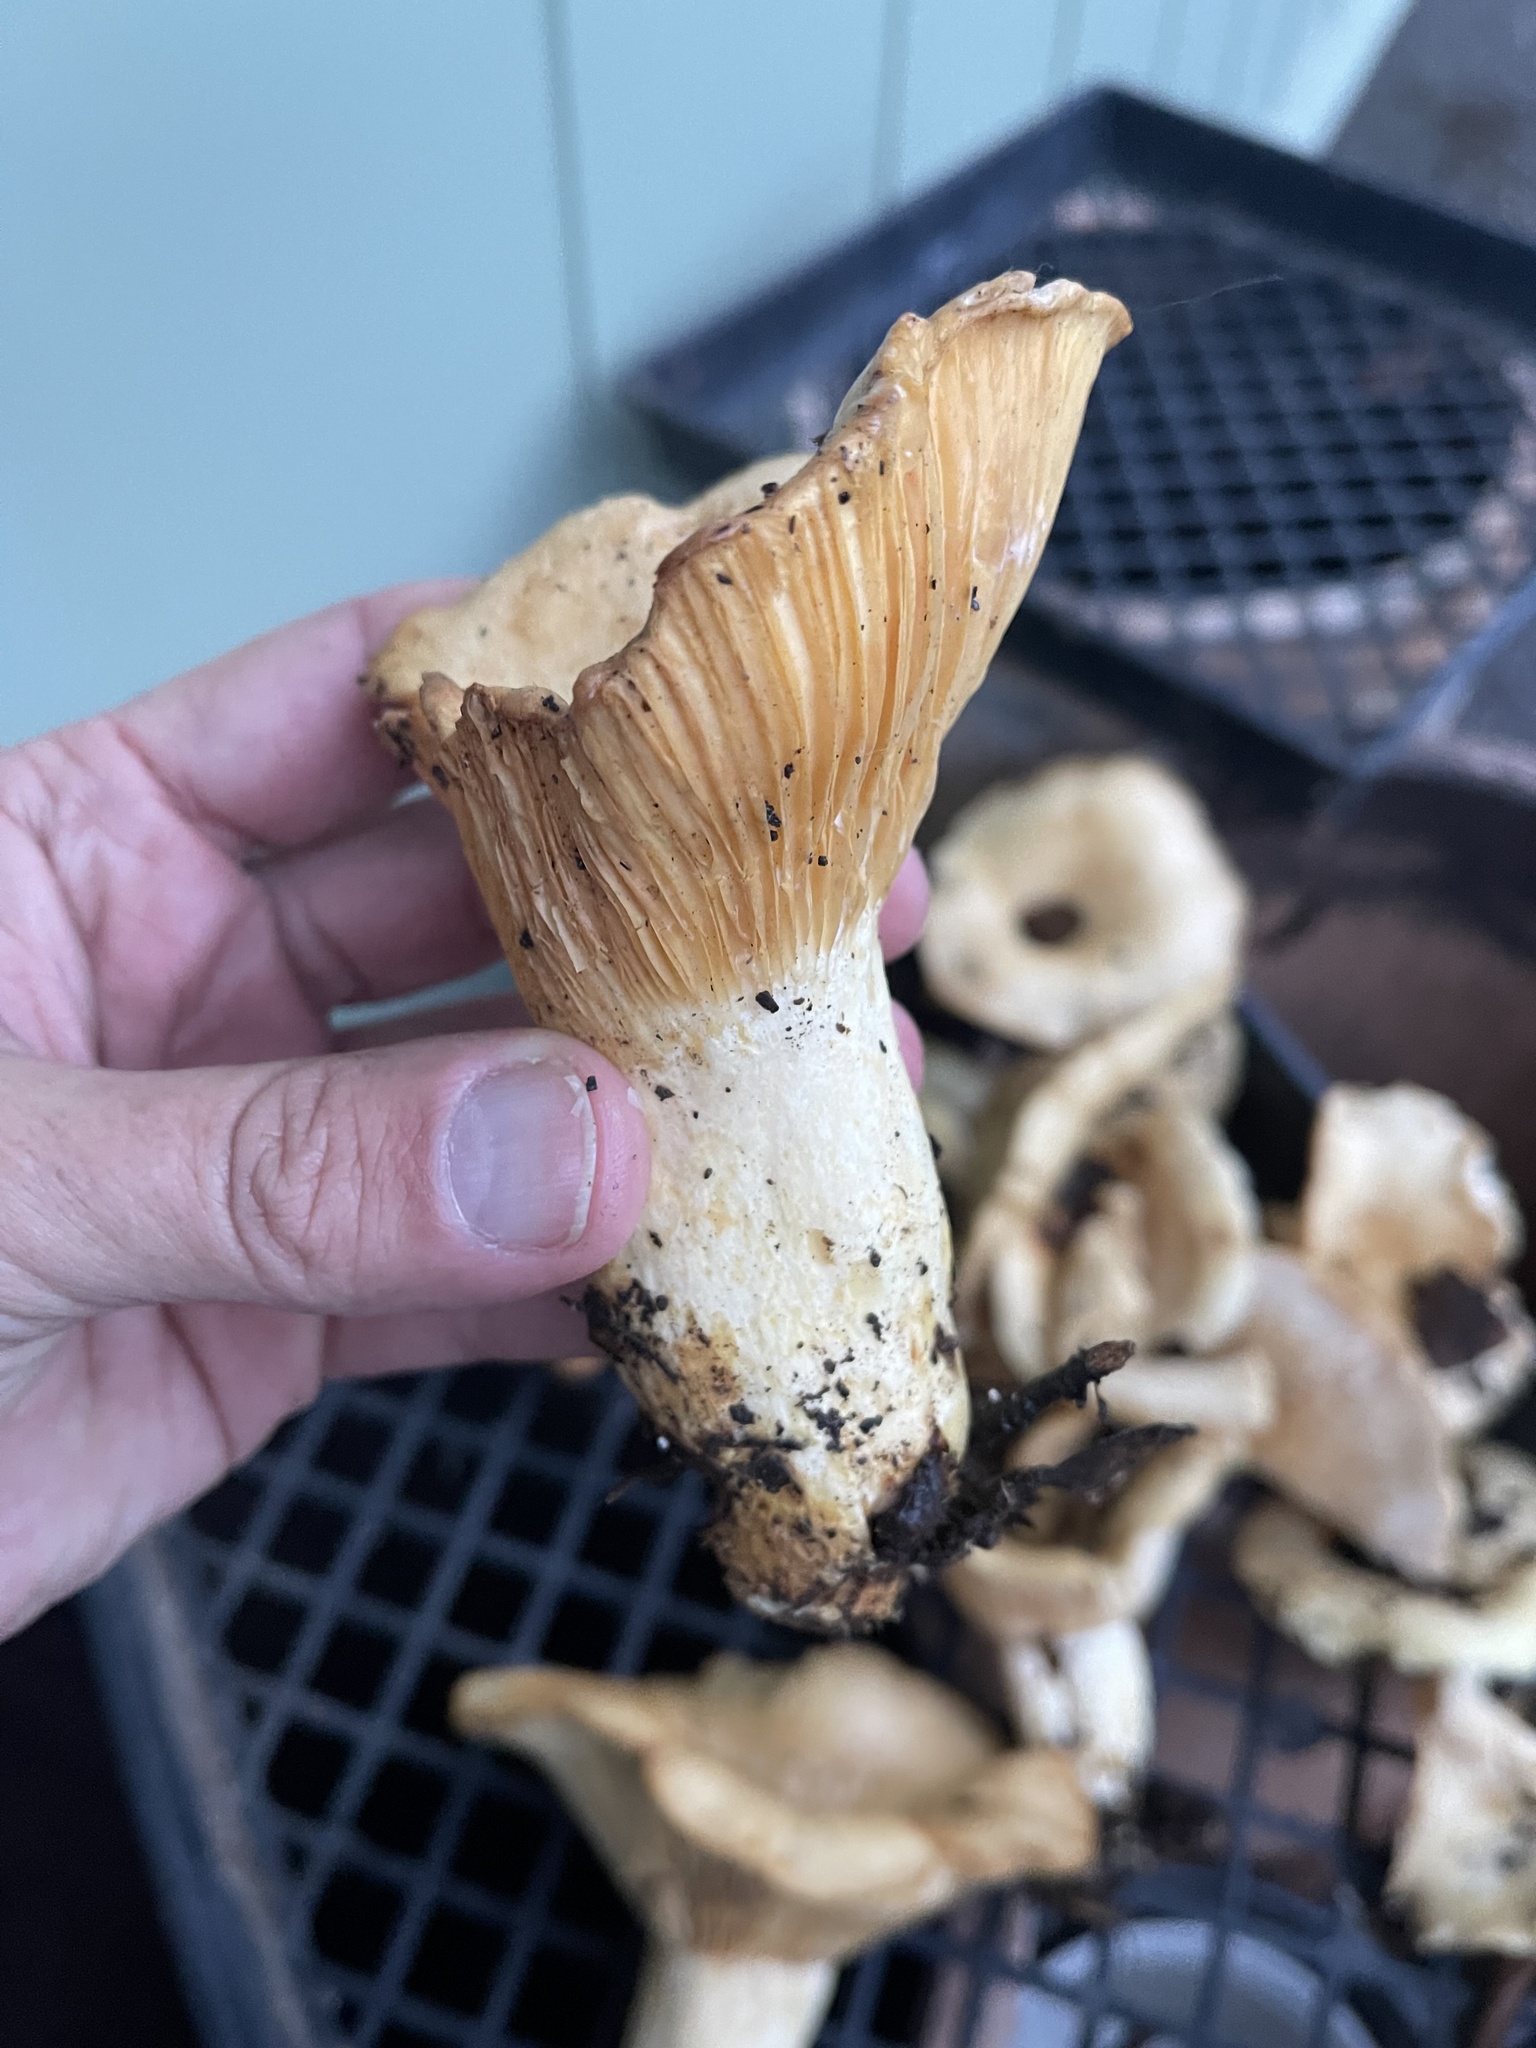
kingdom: Fungi
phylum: Basidiomycota
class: Agaricomycetes
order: Russulales
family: Russulaceae
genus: Lactarius
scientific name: Lactarius alnicola
